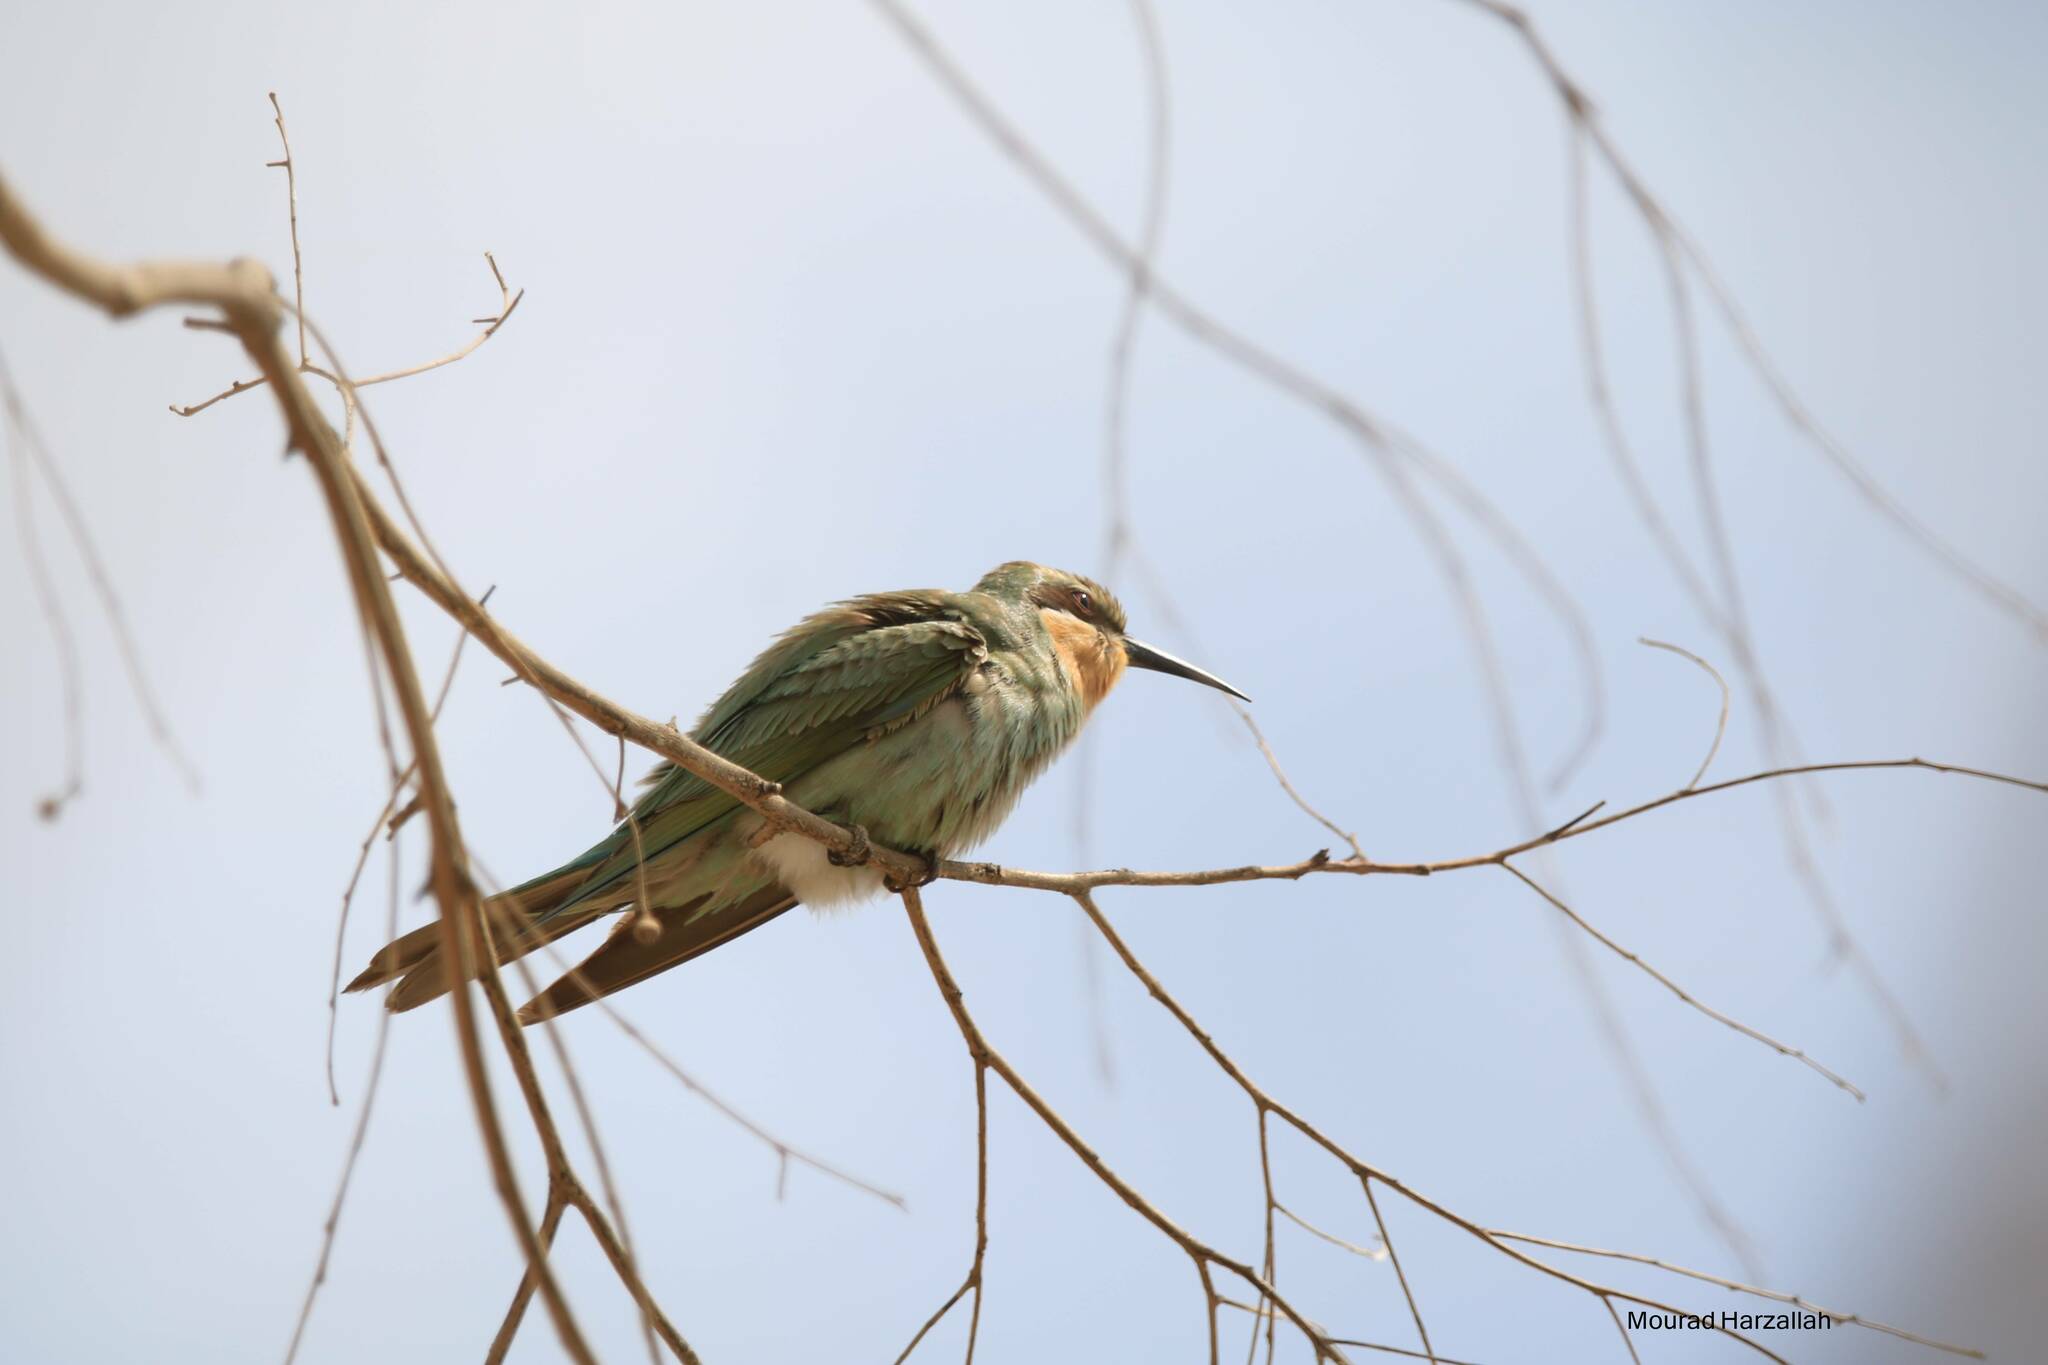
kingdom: Animalia
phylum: Chordata
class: Aves
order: Coraciiformes
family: Meropidae
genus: Merops
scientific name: Merops persicus
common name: Blue-cheeked bee-eater
